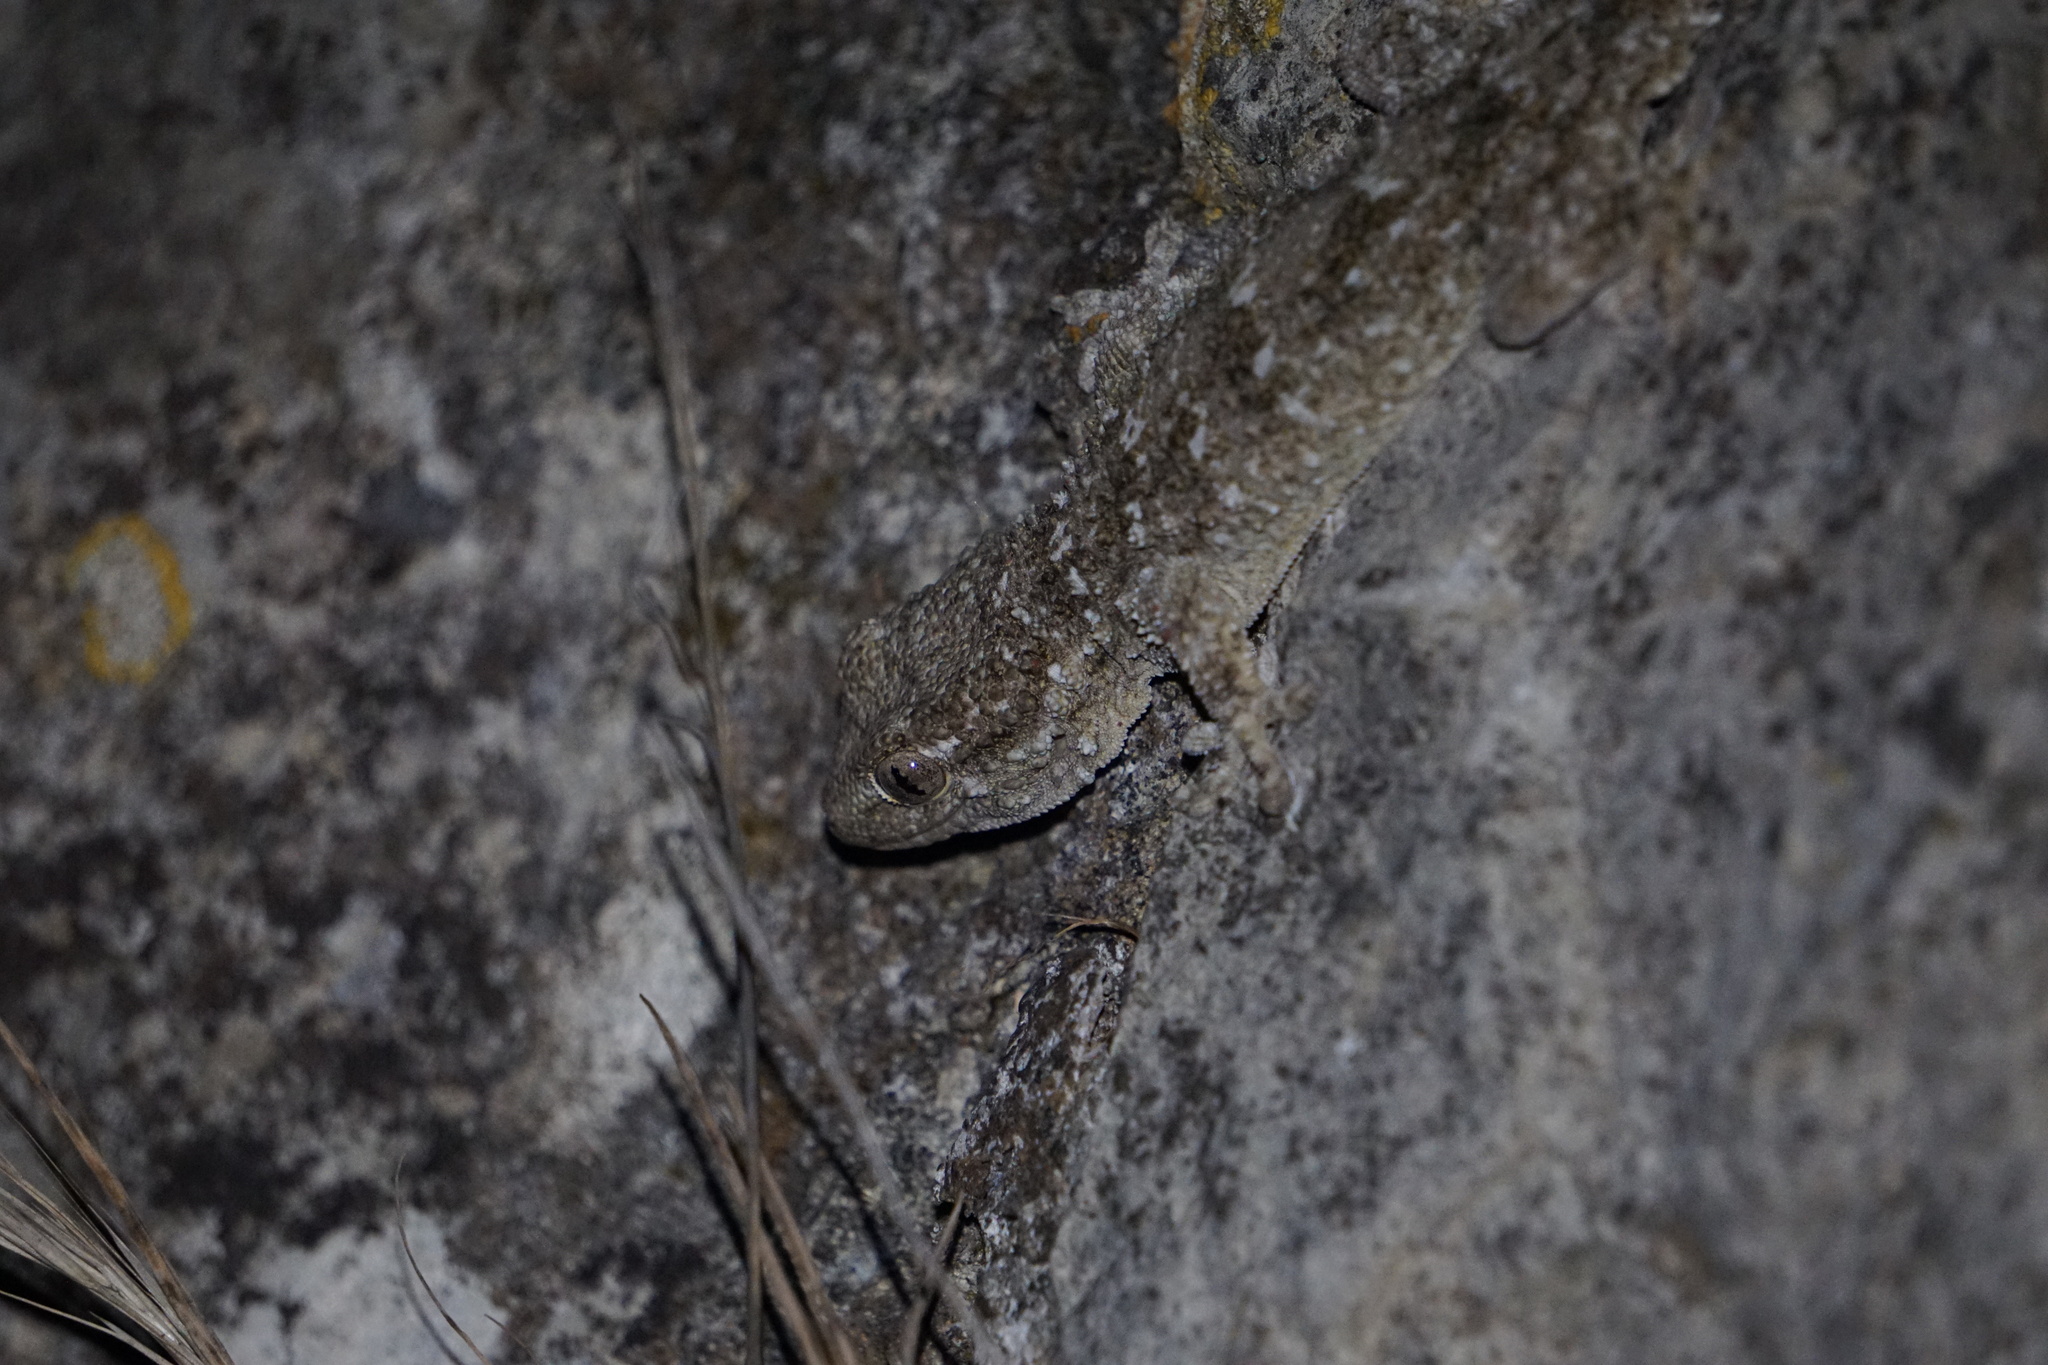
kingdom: Animalia
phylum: Chordata
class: Squamata
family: Phyllodactylidae
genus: Tarentola
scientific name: Tarentola mauritanica
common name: Moorish gecko
